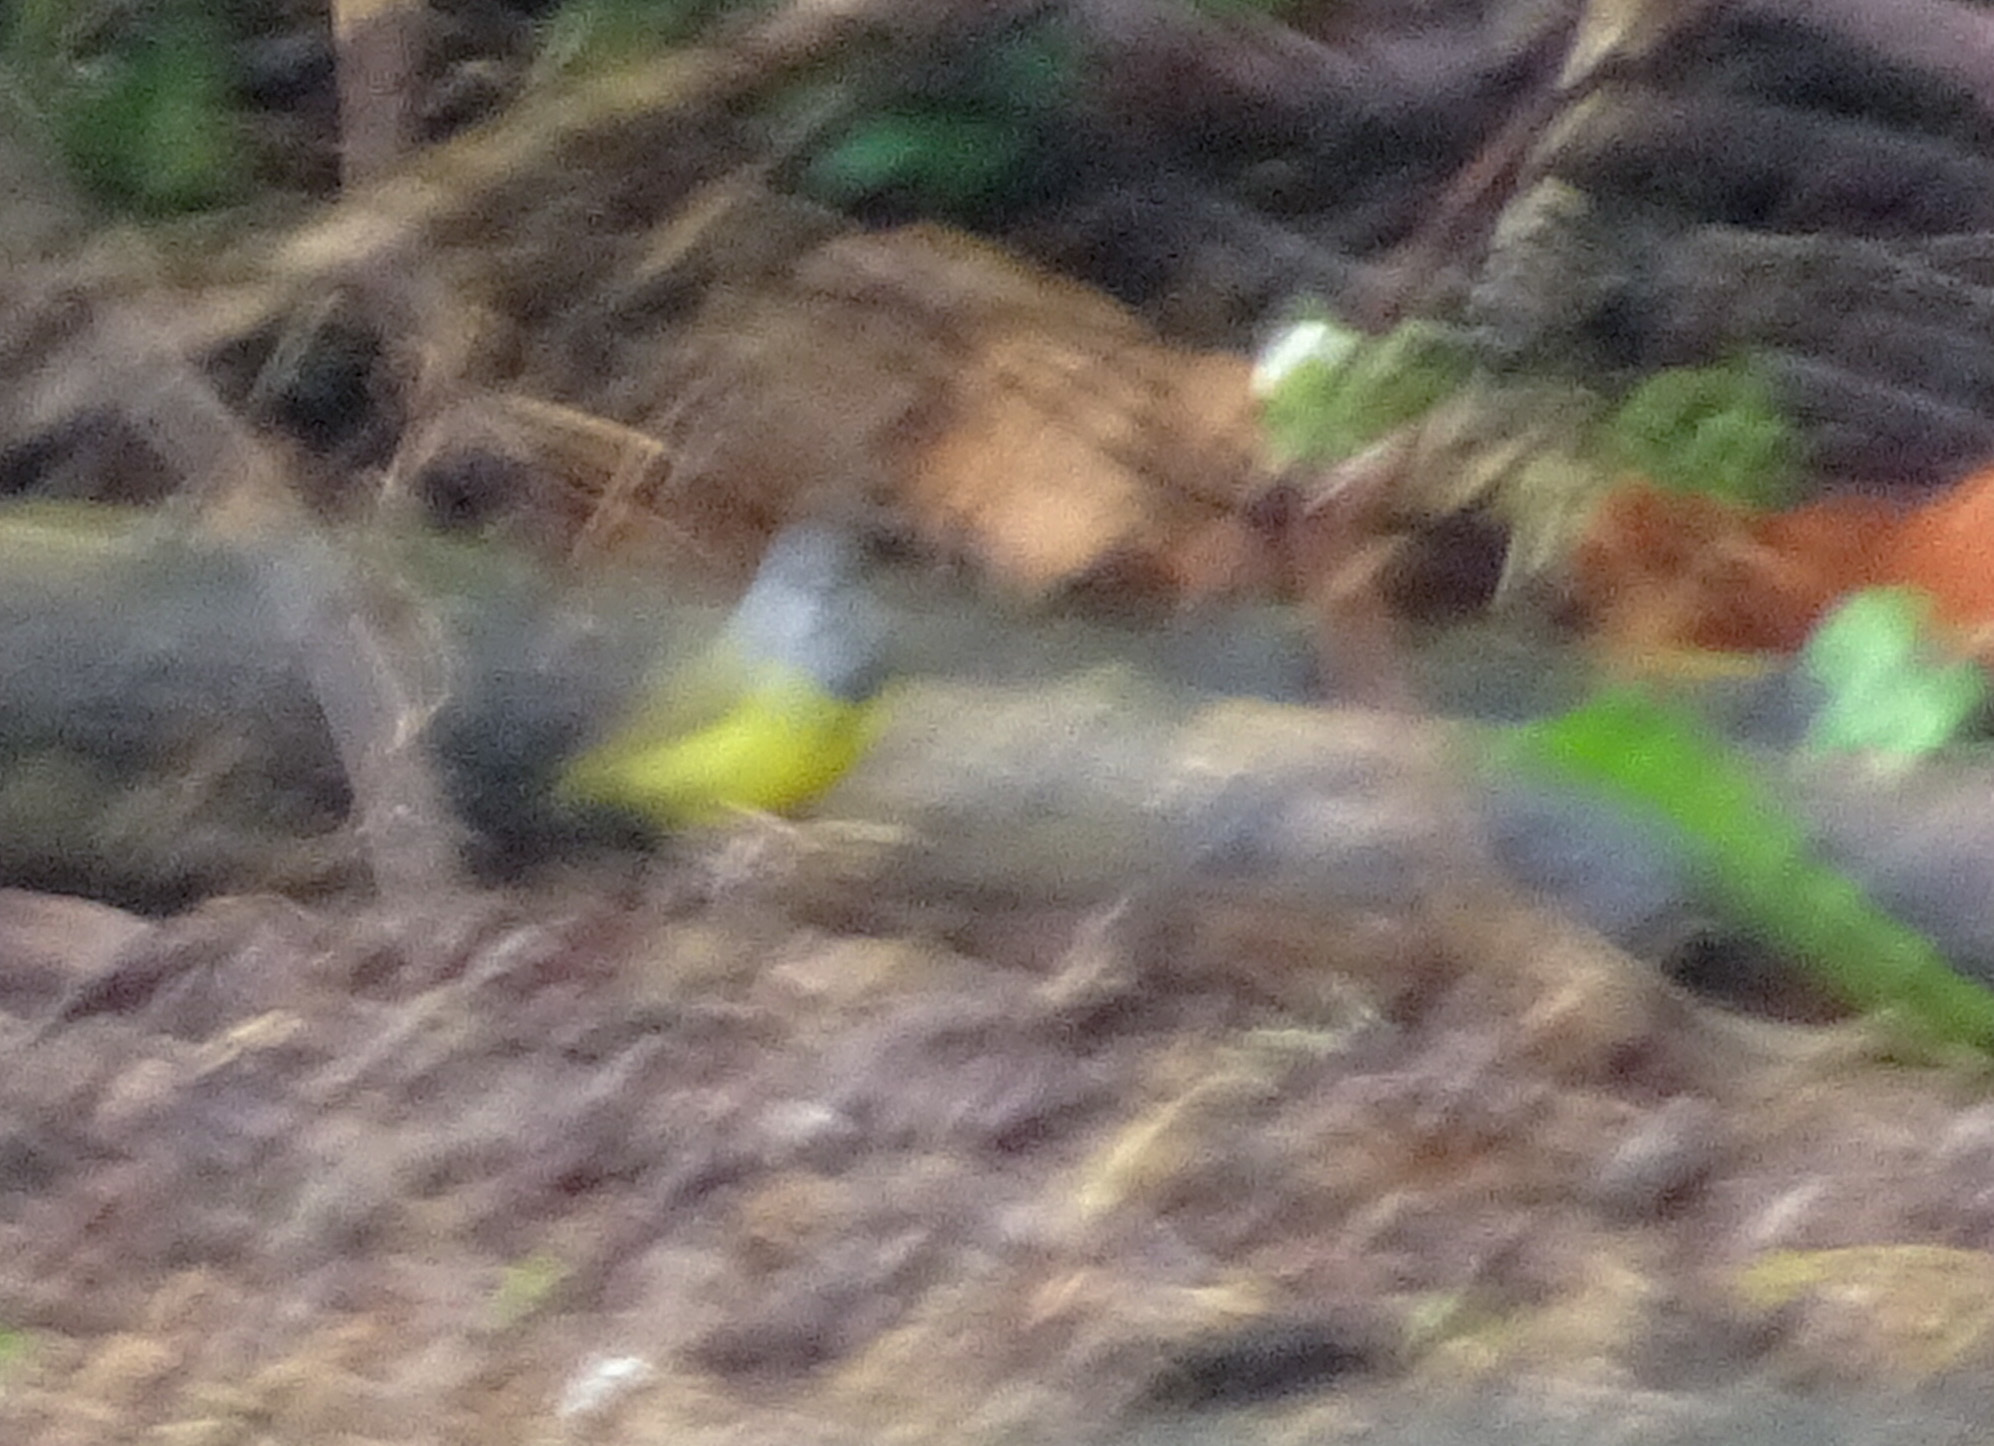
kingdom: Animalia
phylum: Chordata
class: Aves
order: Passeriformes
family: Parulidae
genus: Geothlypis
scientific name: Geothlypis philadelphia
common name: Mourning warbler
